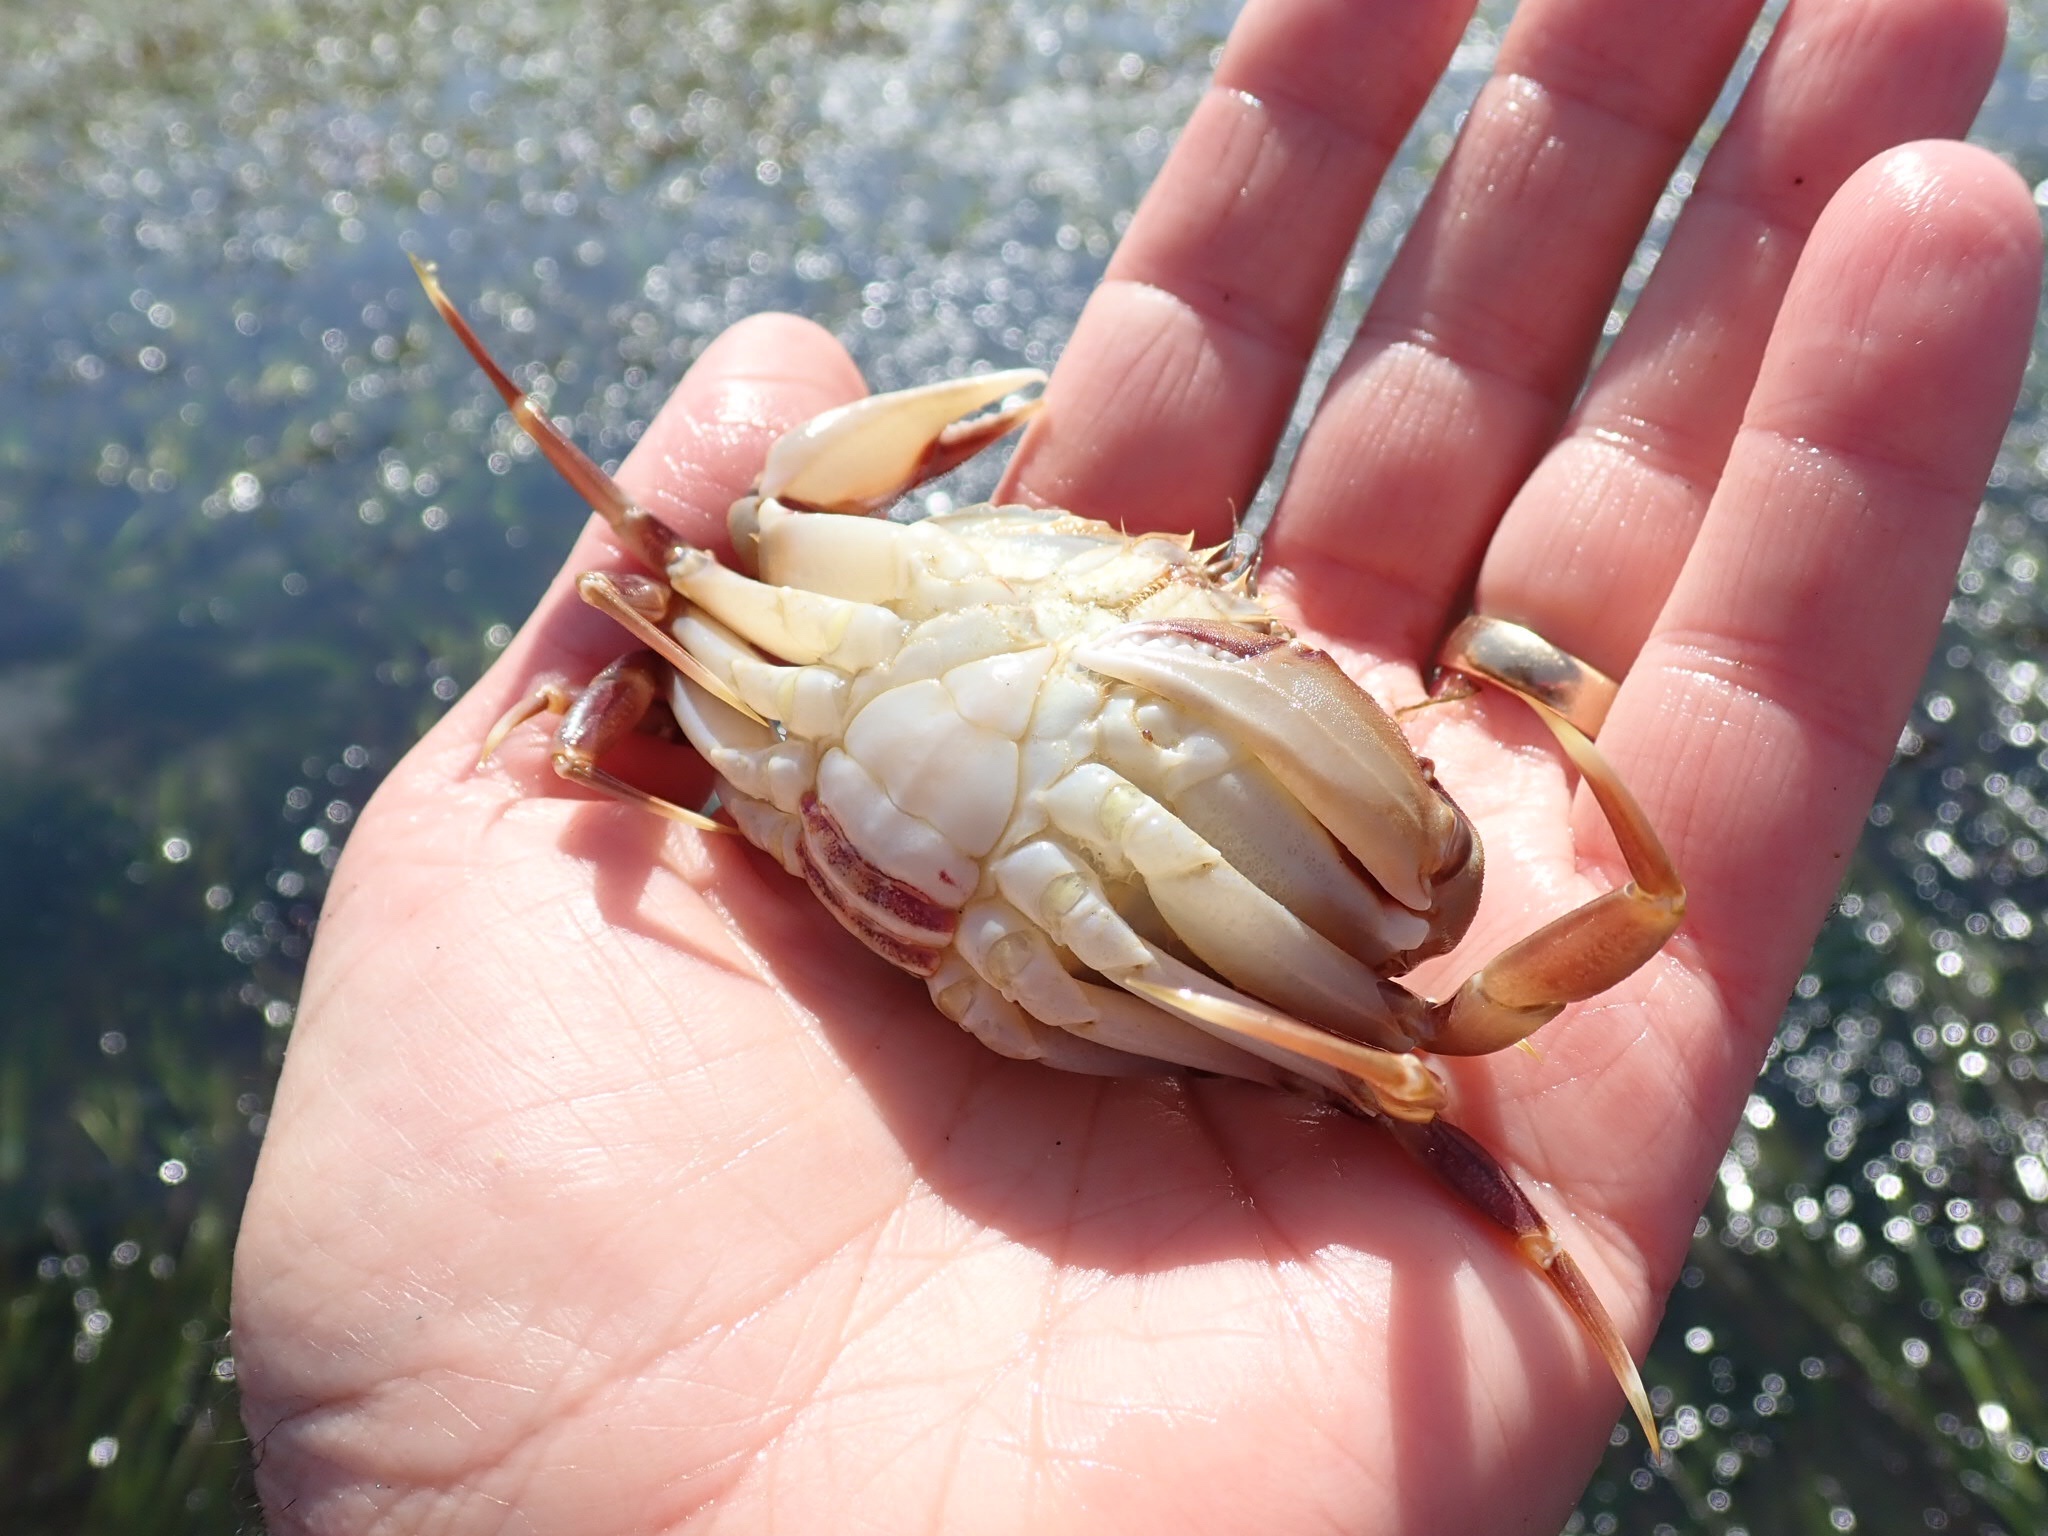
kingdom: Animalia
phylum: Arthropoda
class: Malacostraca
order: Decapoda
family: Cancridae
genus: Metacarcinus
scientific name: Metacarcinus gracilis
